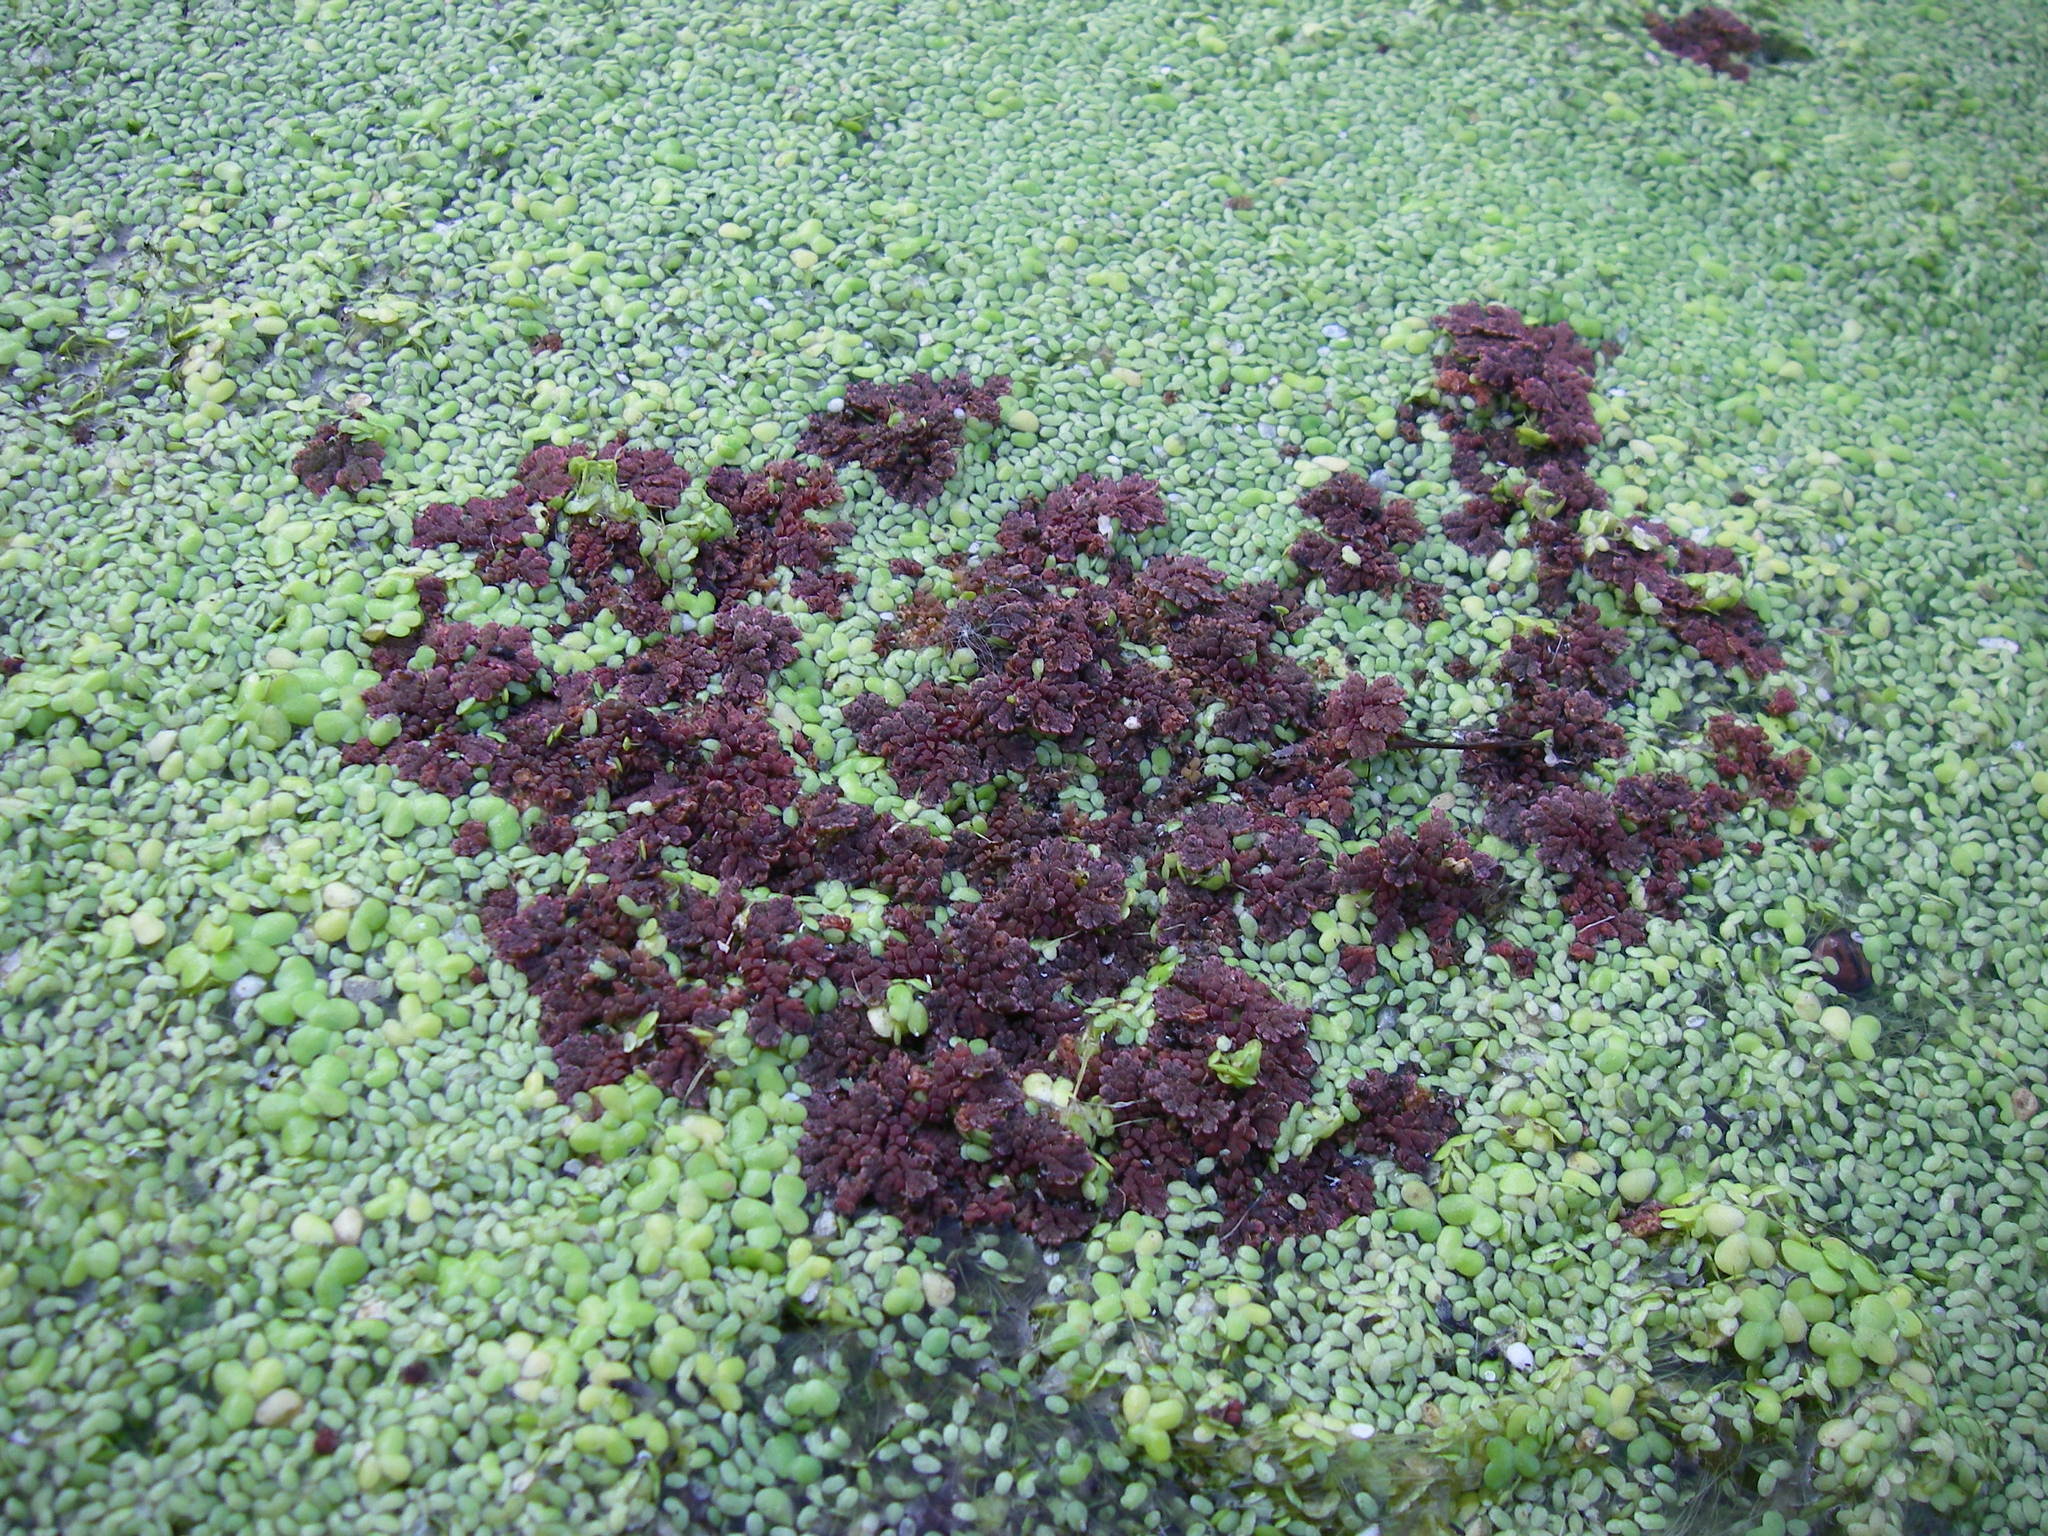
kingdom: Plantae
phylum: Tracheophyta
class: Polypodiopsida
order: Salviniales
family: Salviniaceae
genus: Azolla
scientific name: Azolla filiculoides
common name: Water fern
